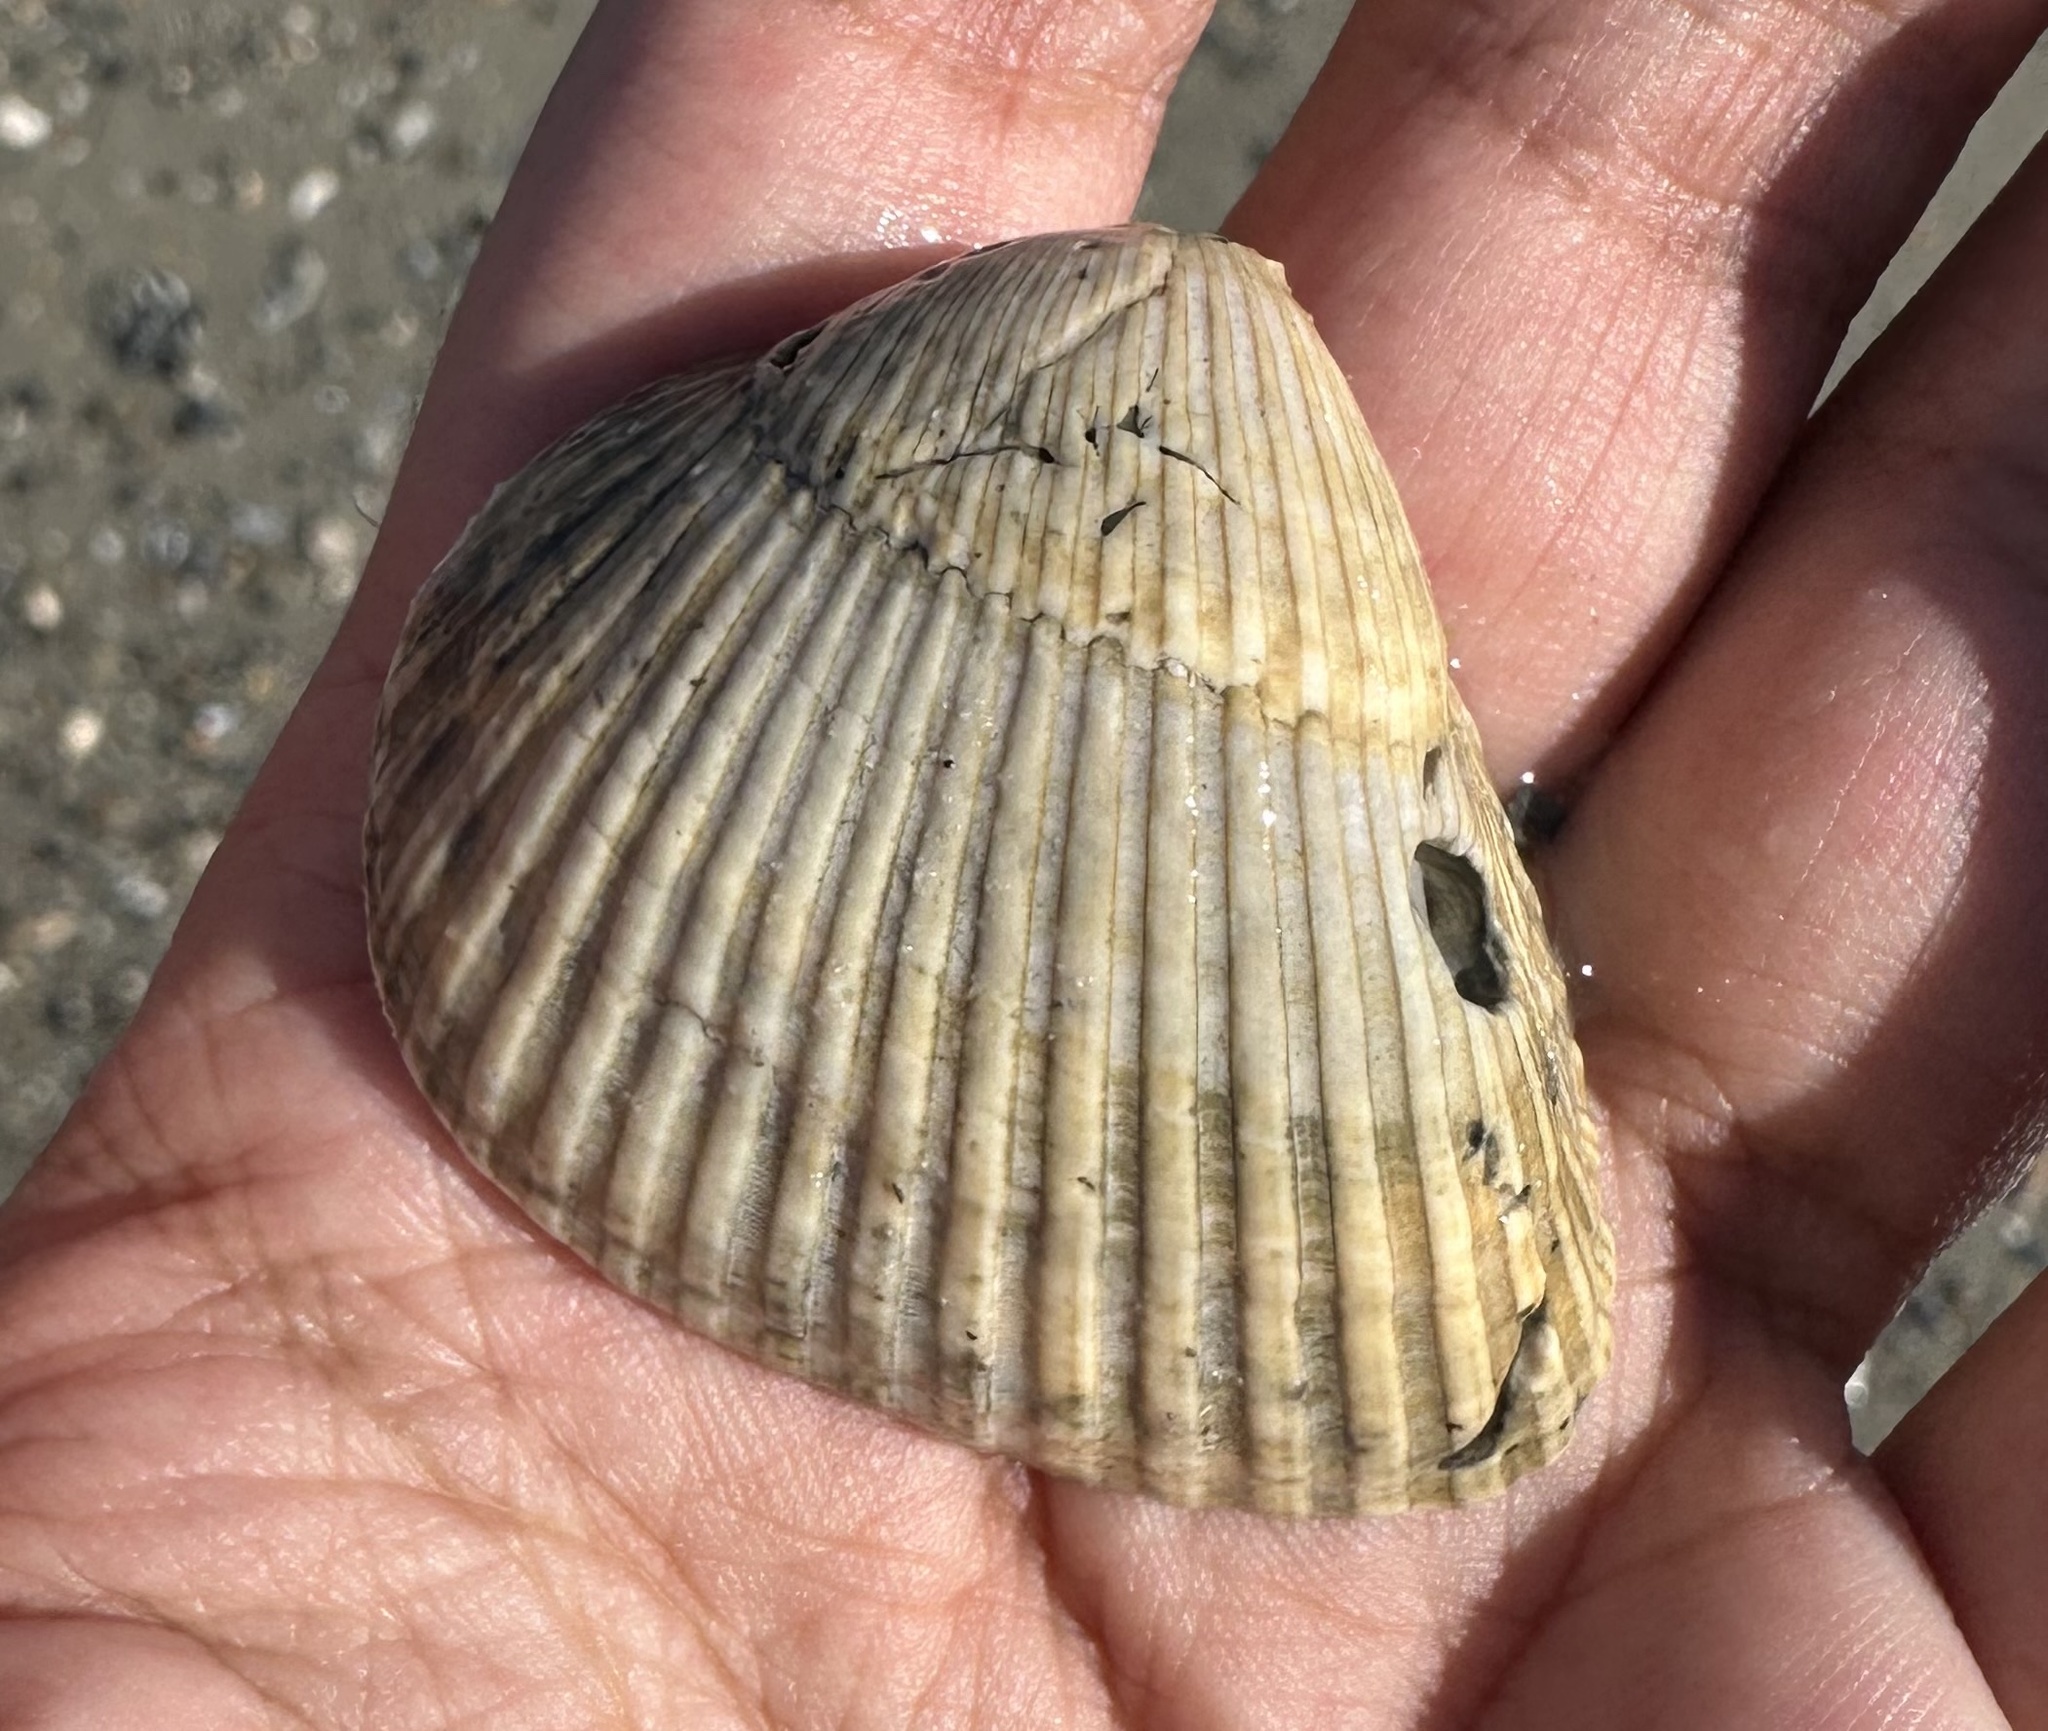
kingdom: Animalia
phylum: Mollusca
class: Bivalvia
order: Arcida
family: Noetiidae
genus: Noetia
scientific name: Noetia ponderosa
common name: Ponderous ark
